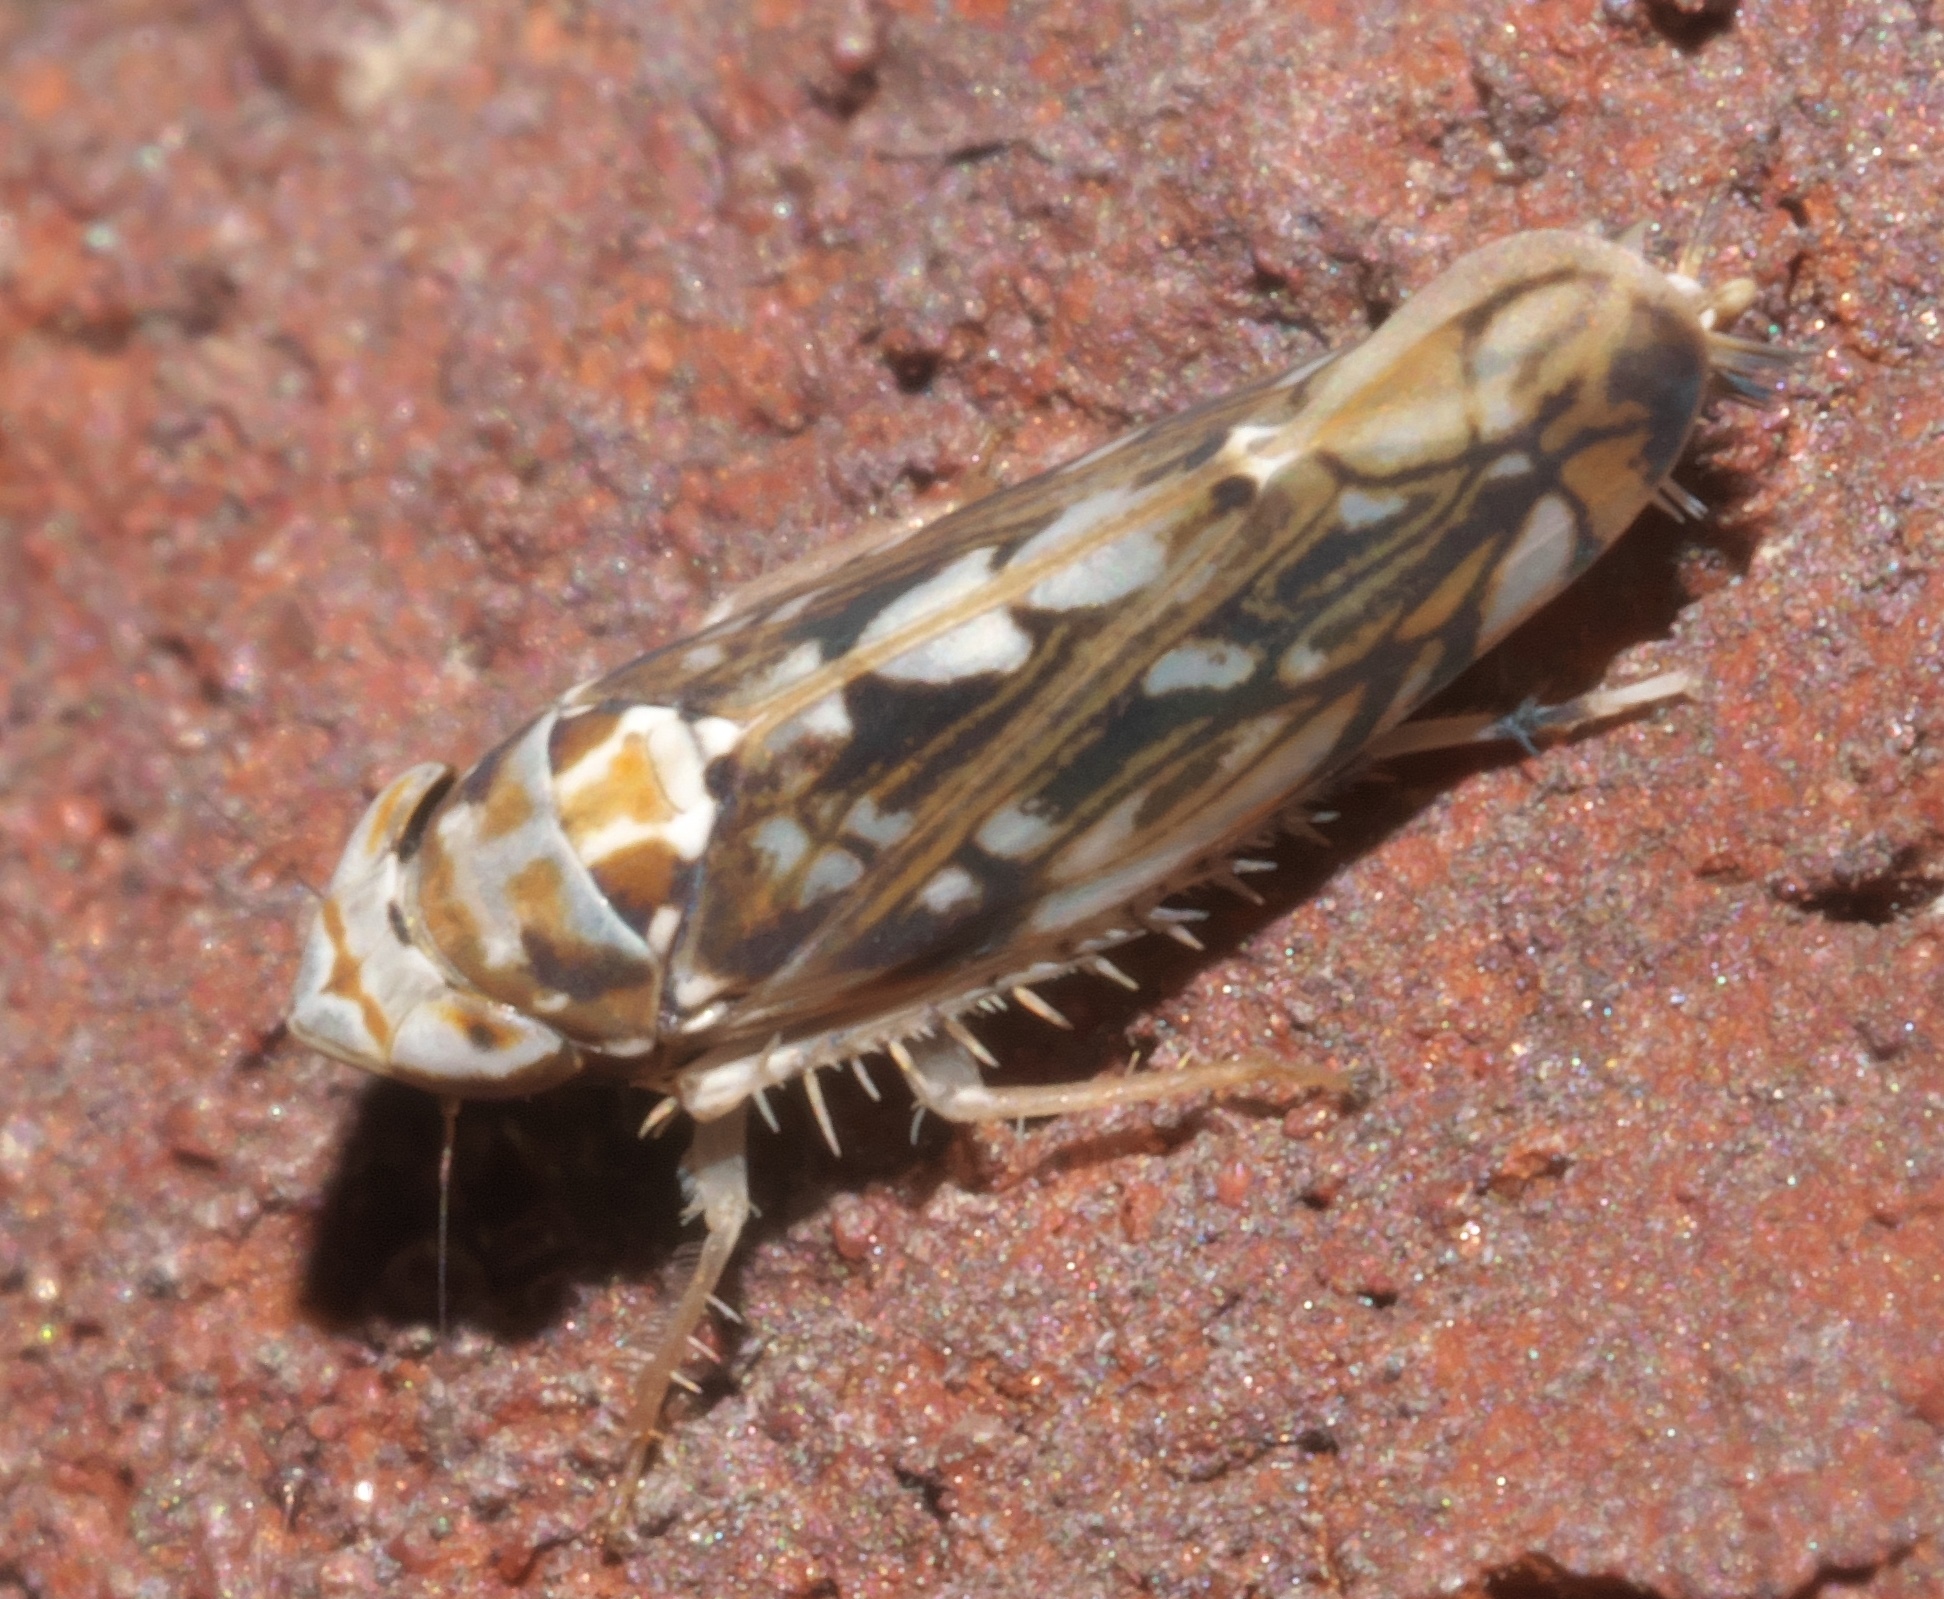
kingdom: Animalia
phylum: Arthropoda
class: Insecta
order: Hemiptera
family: Cicadellidae
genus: Scaphoideus
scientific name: Scaphoideus melanotus
